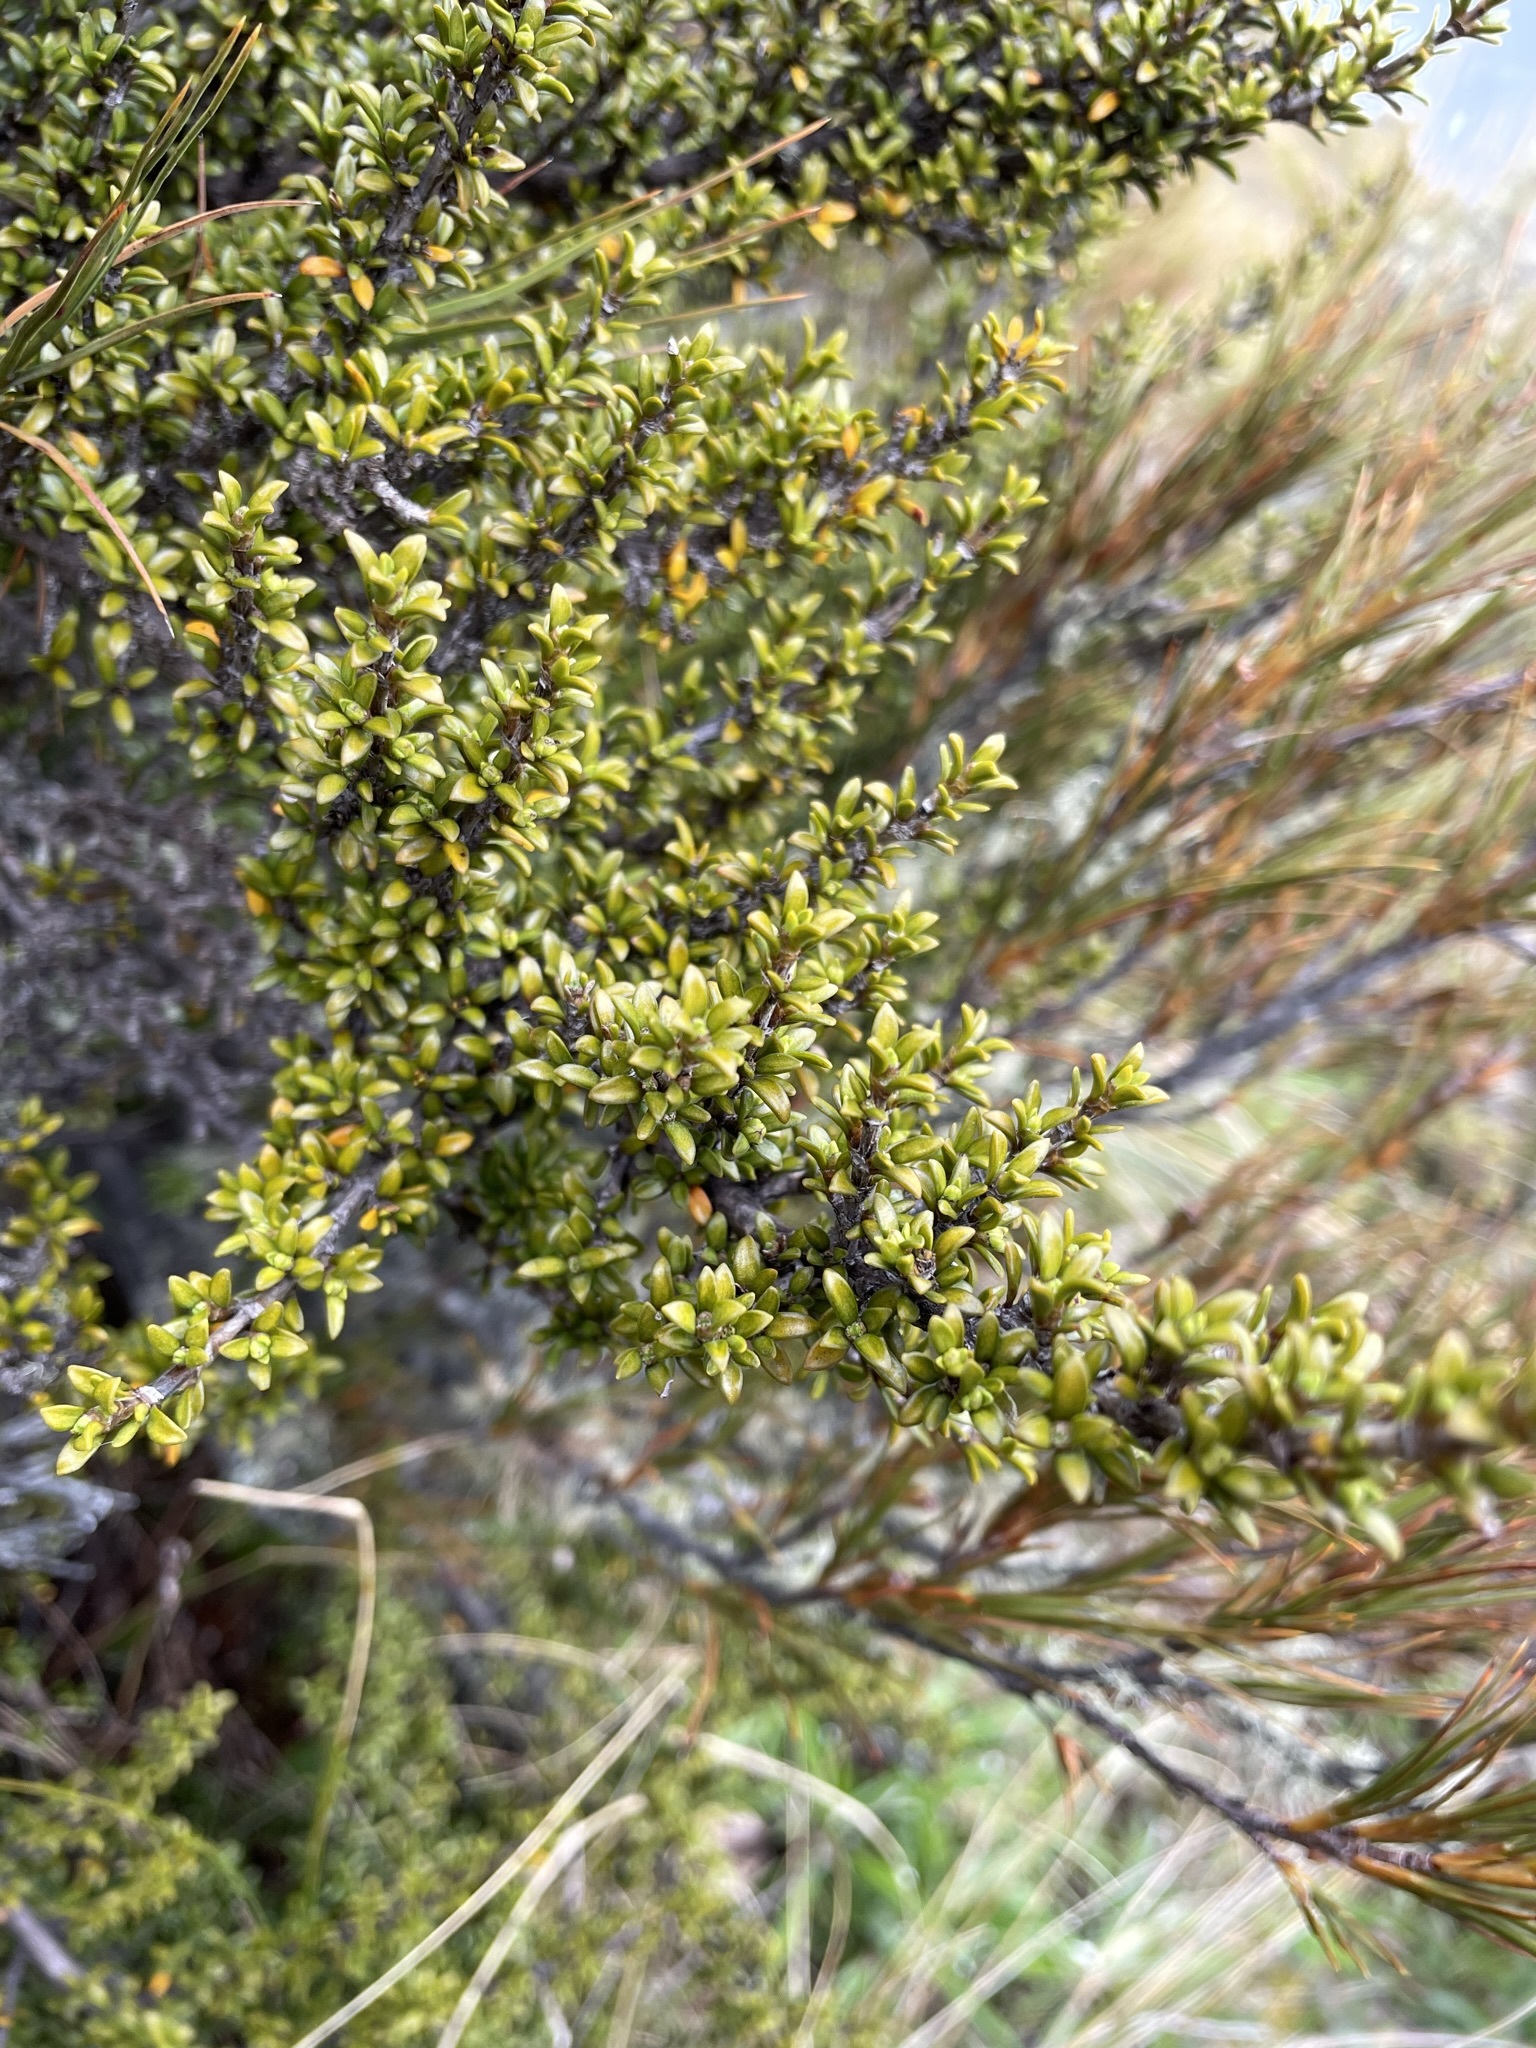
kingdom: Plantae
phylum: Tracheophyta
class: Magnoliopsida
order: Gentianales
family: Rubiaceae
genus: Coprosma
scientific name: Coprosma pseudocuneata
